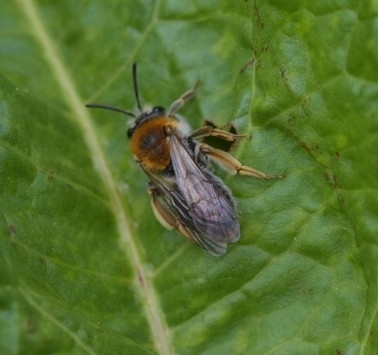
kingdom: Animalia
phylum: Arthropoda
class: Insecta
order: Hymenoptera
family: Andrenidae
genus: Andrena
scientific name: Andrena haemorrhoa
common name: Early mining bee
